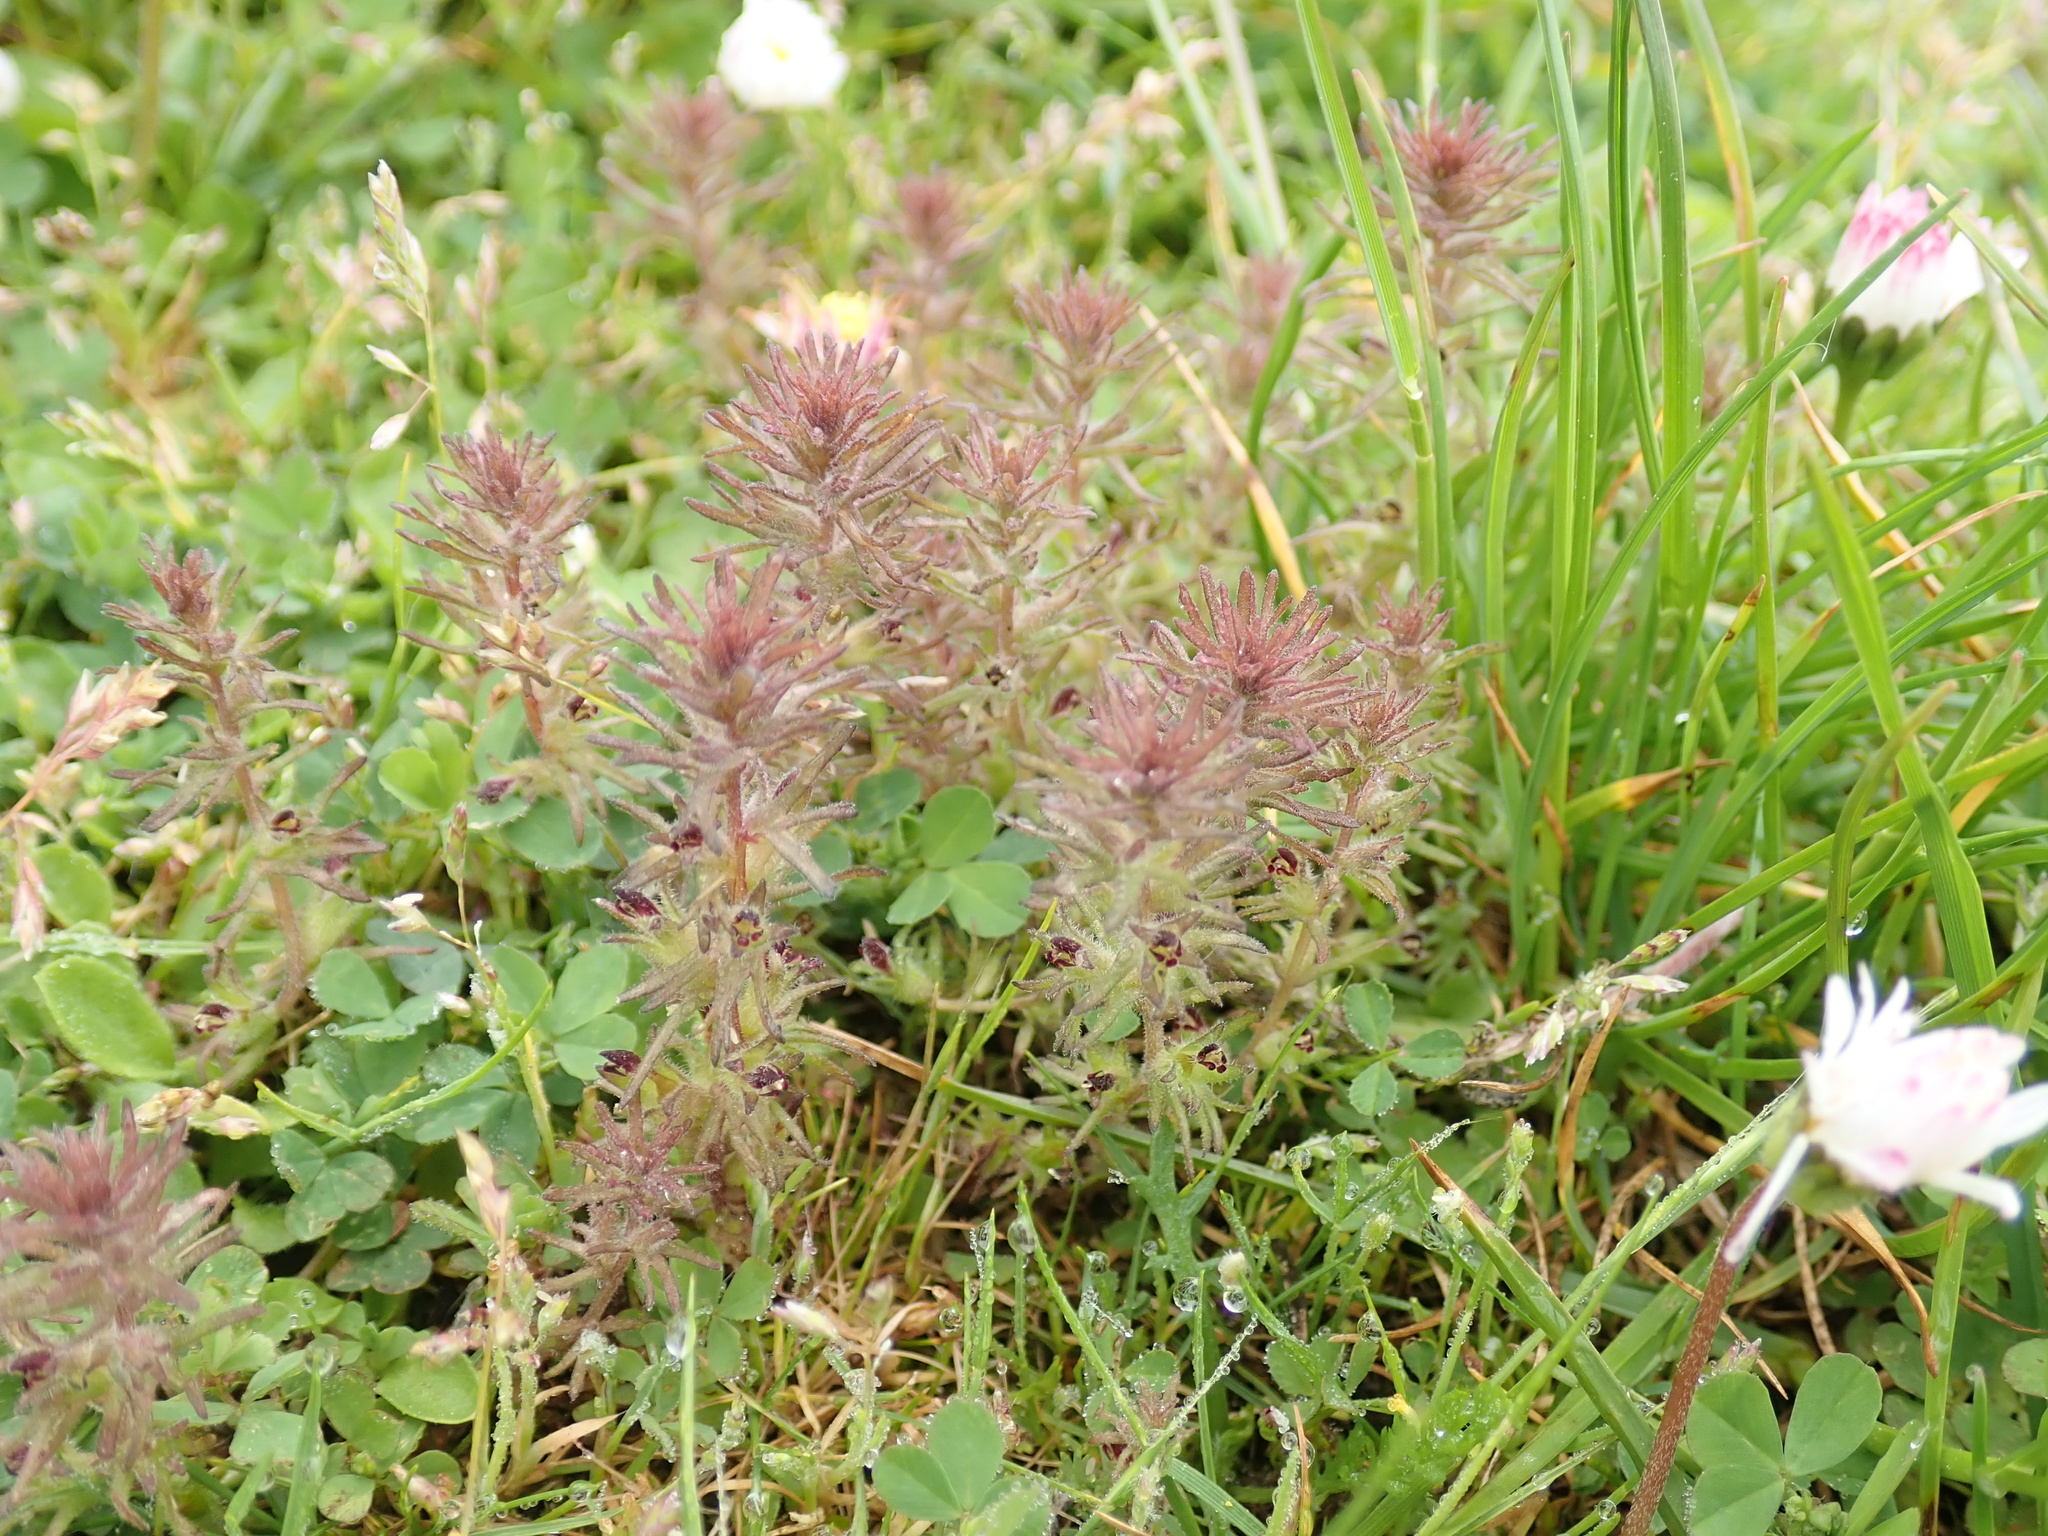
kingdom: Plantae
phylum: Tracheophyta
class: Magnoliopsida
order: Lamiales
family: Orobanchaceae
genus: Triphysaria
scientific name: Triphysaria pusilla
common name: Dwarf false owl-clover
